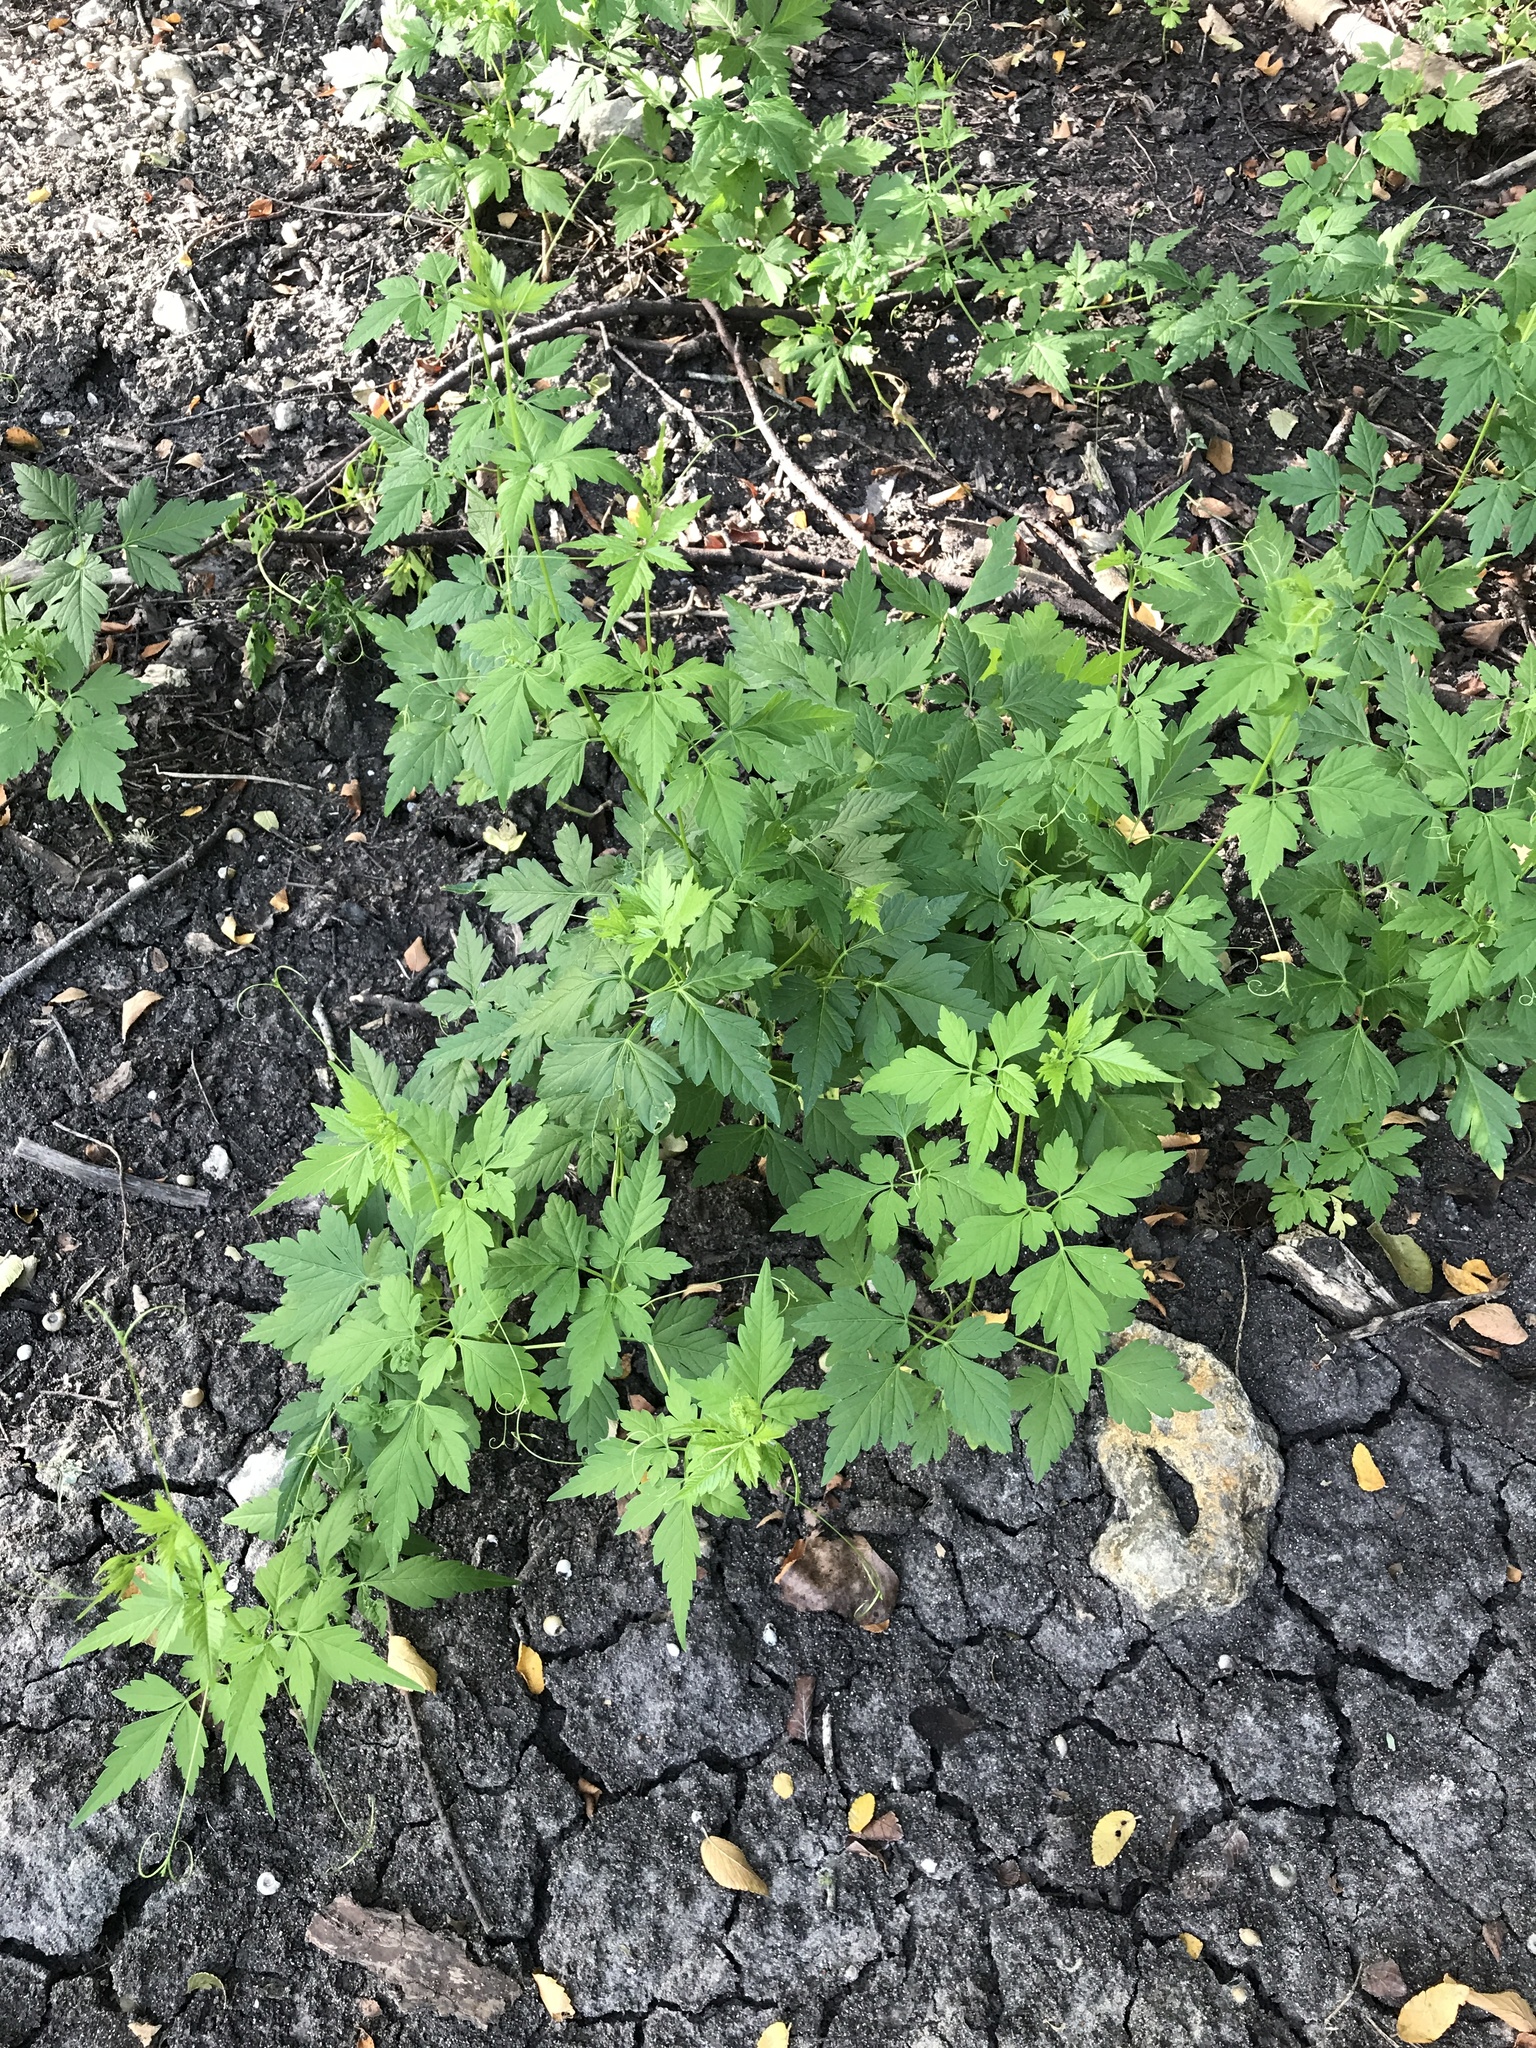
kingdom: Plantae
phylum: Tracheophyta
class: Magnoliopsida
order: Sapindales
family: Sapindaceae
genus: Cardiospermum
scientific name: Cardiospermum halicacabum
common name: Balloon vine
